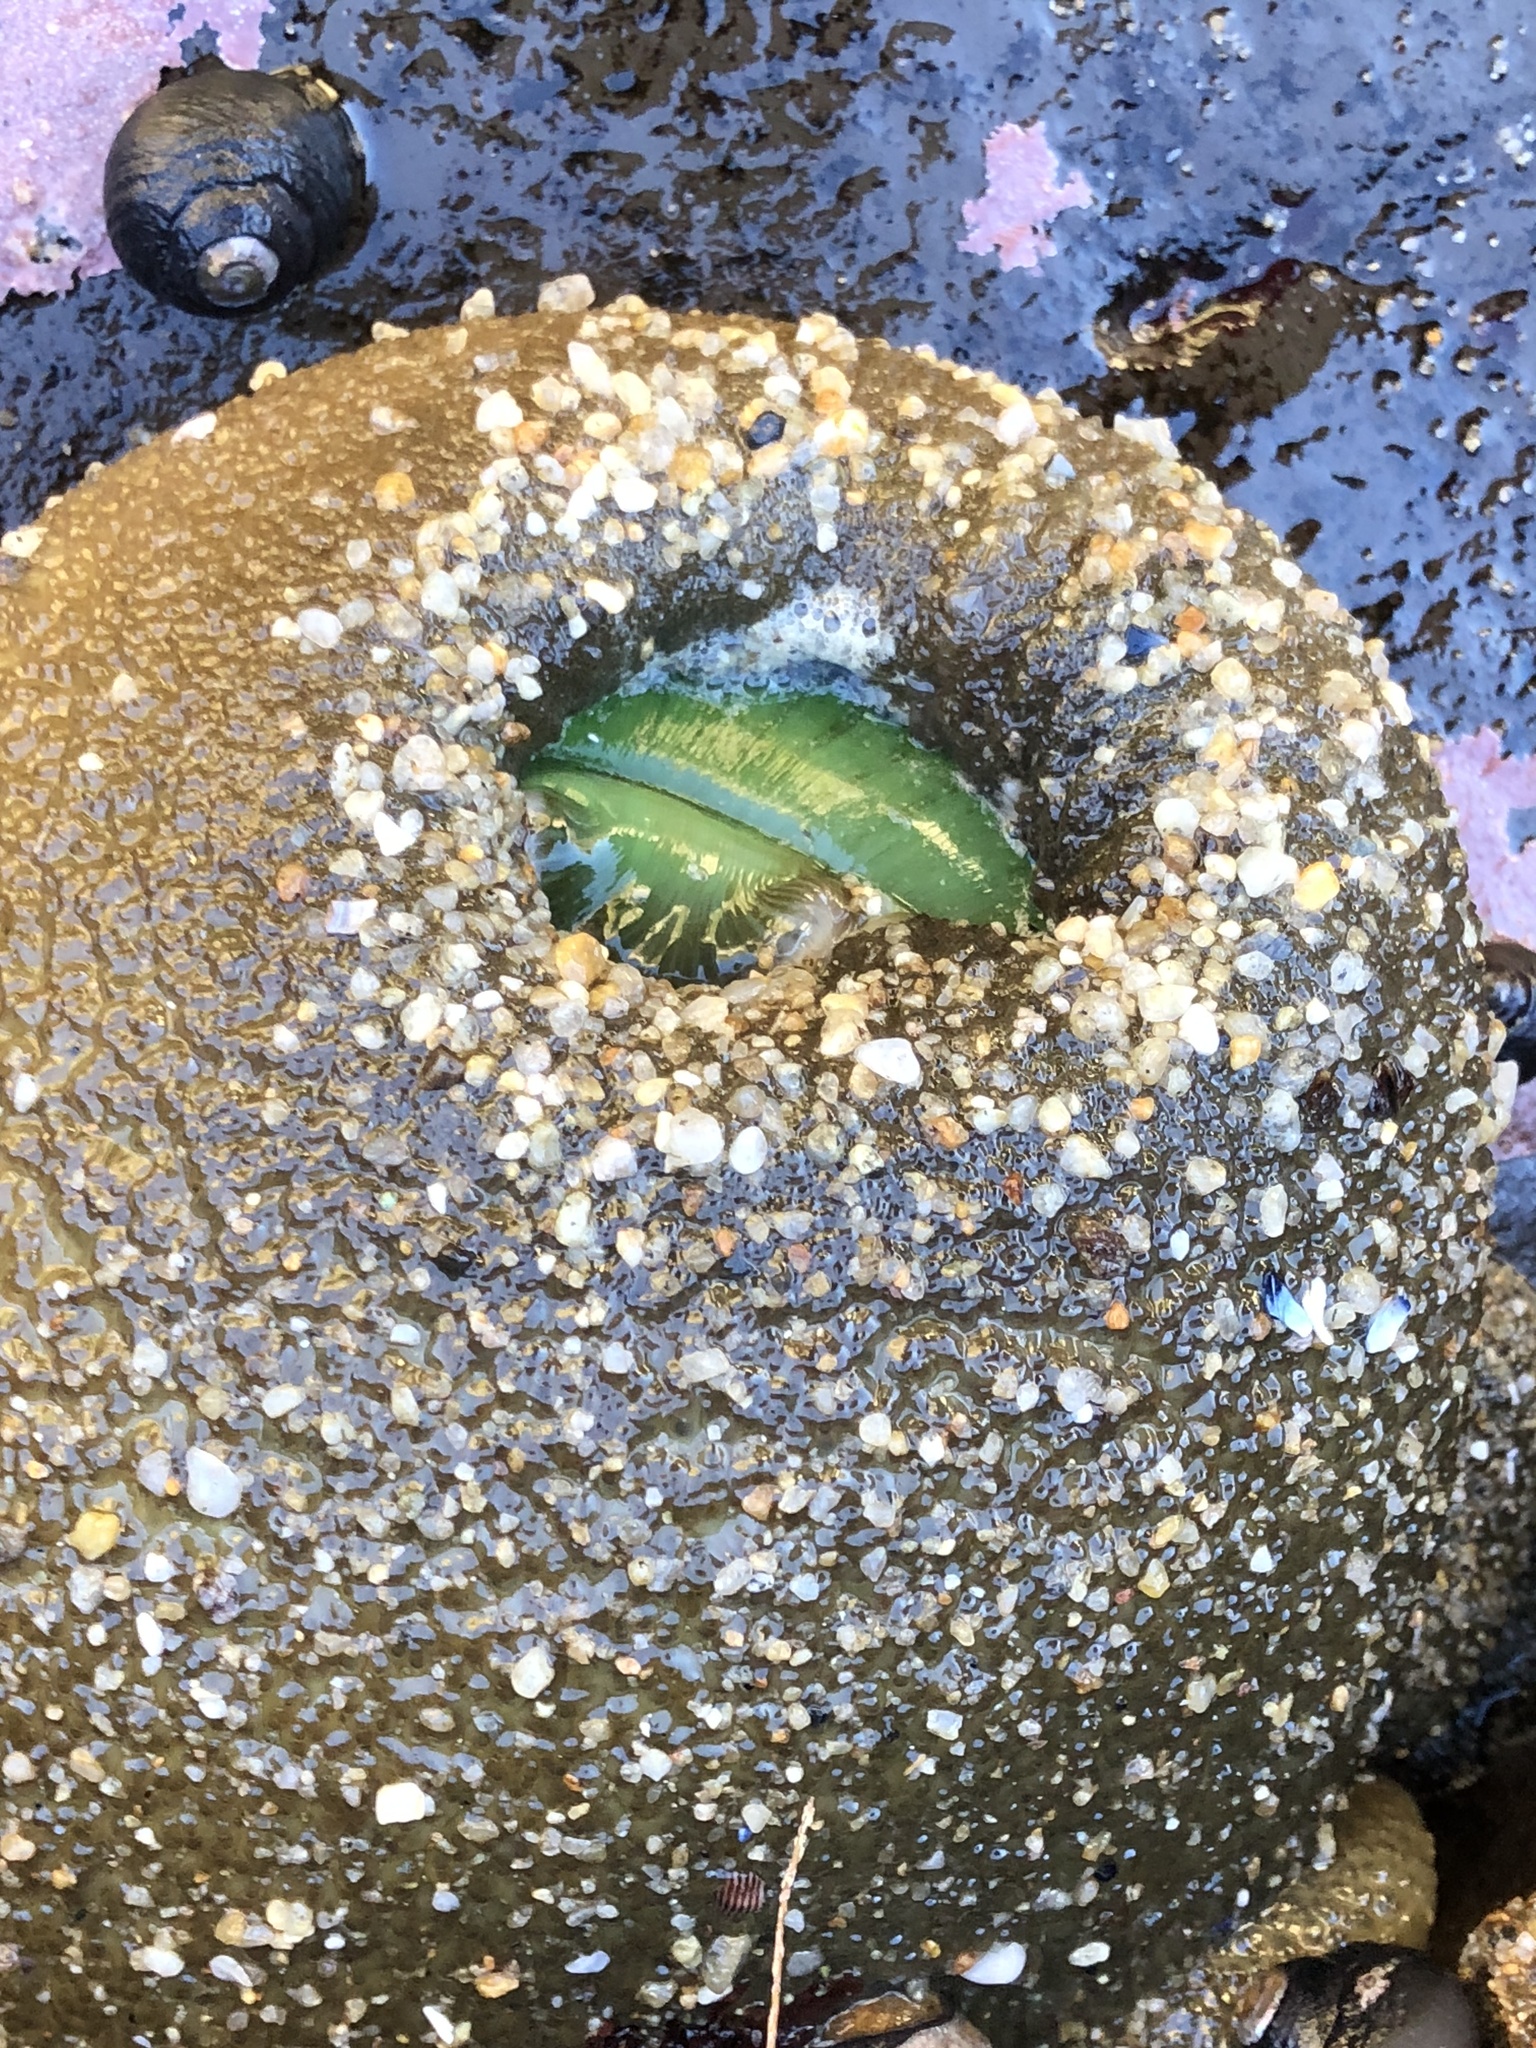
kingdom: Animalia
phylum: Cnidaria
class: Anthozoa
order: Actiniaria
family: Actiniidae
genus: Anthopleura
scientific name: Anthopleura xanthogrammica
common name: Giant green anemone
